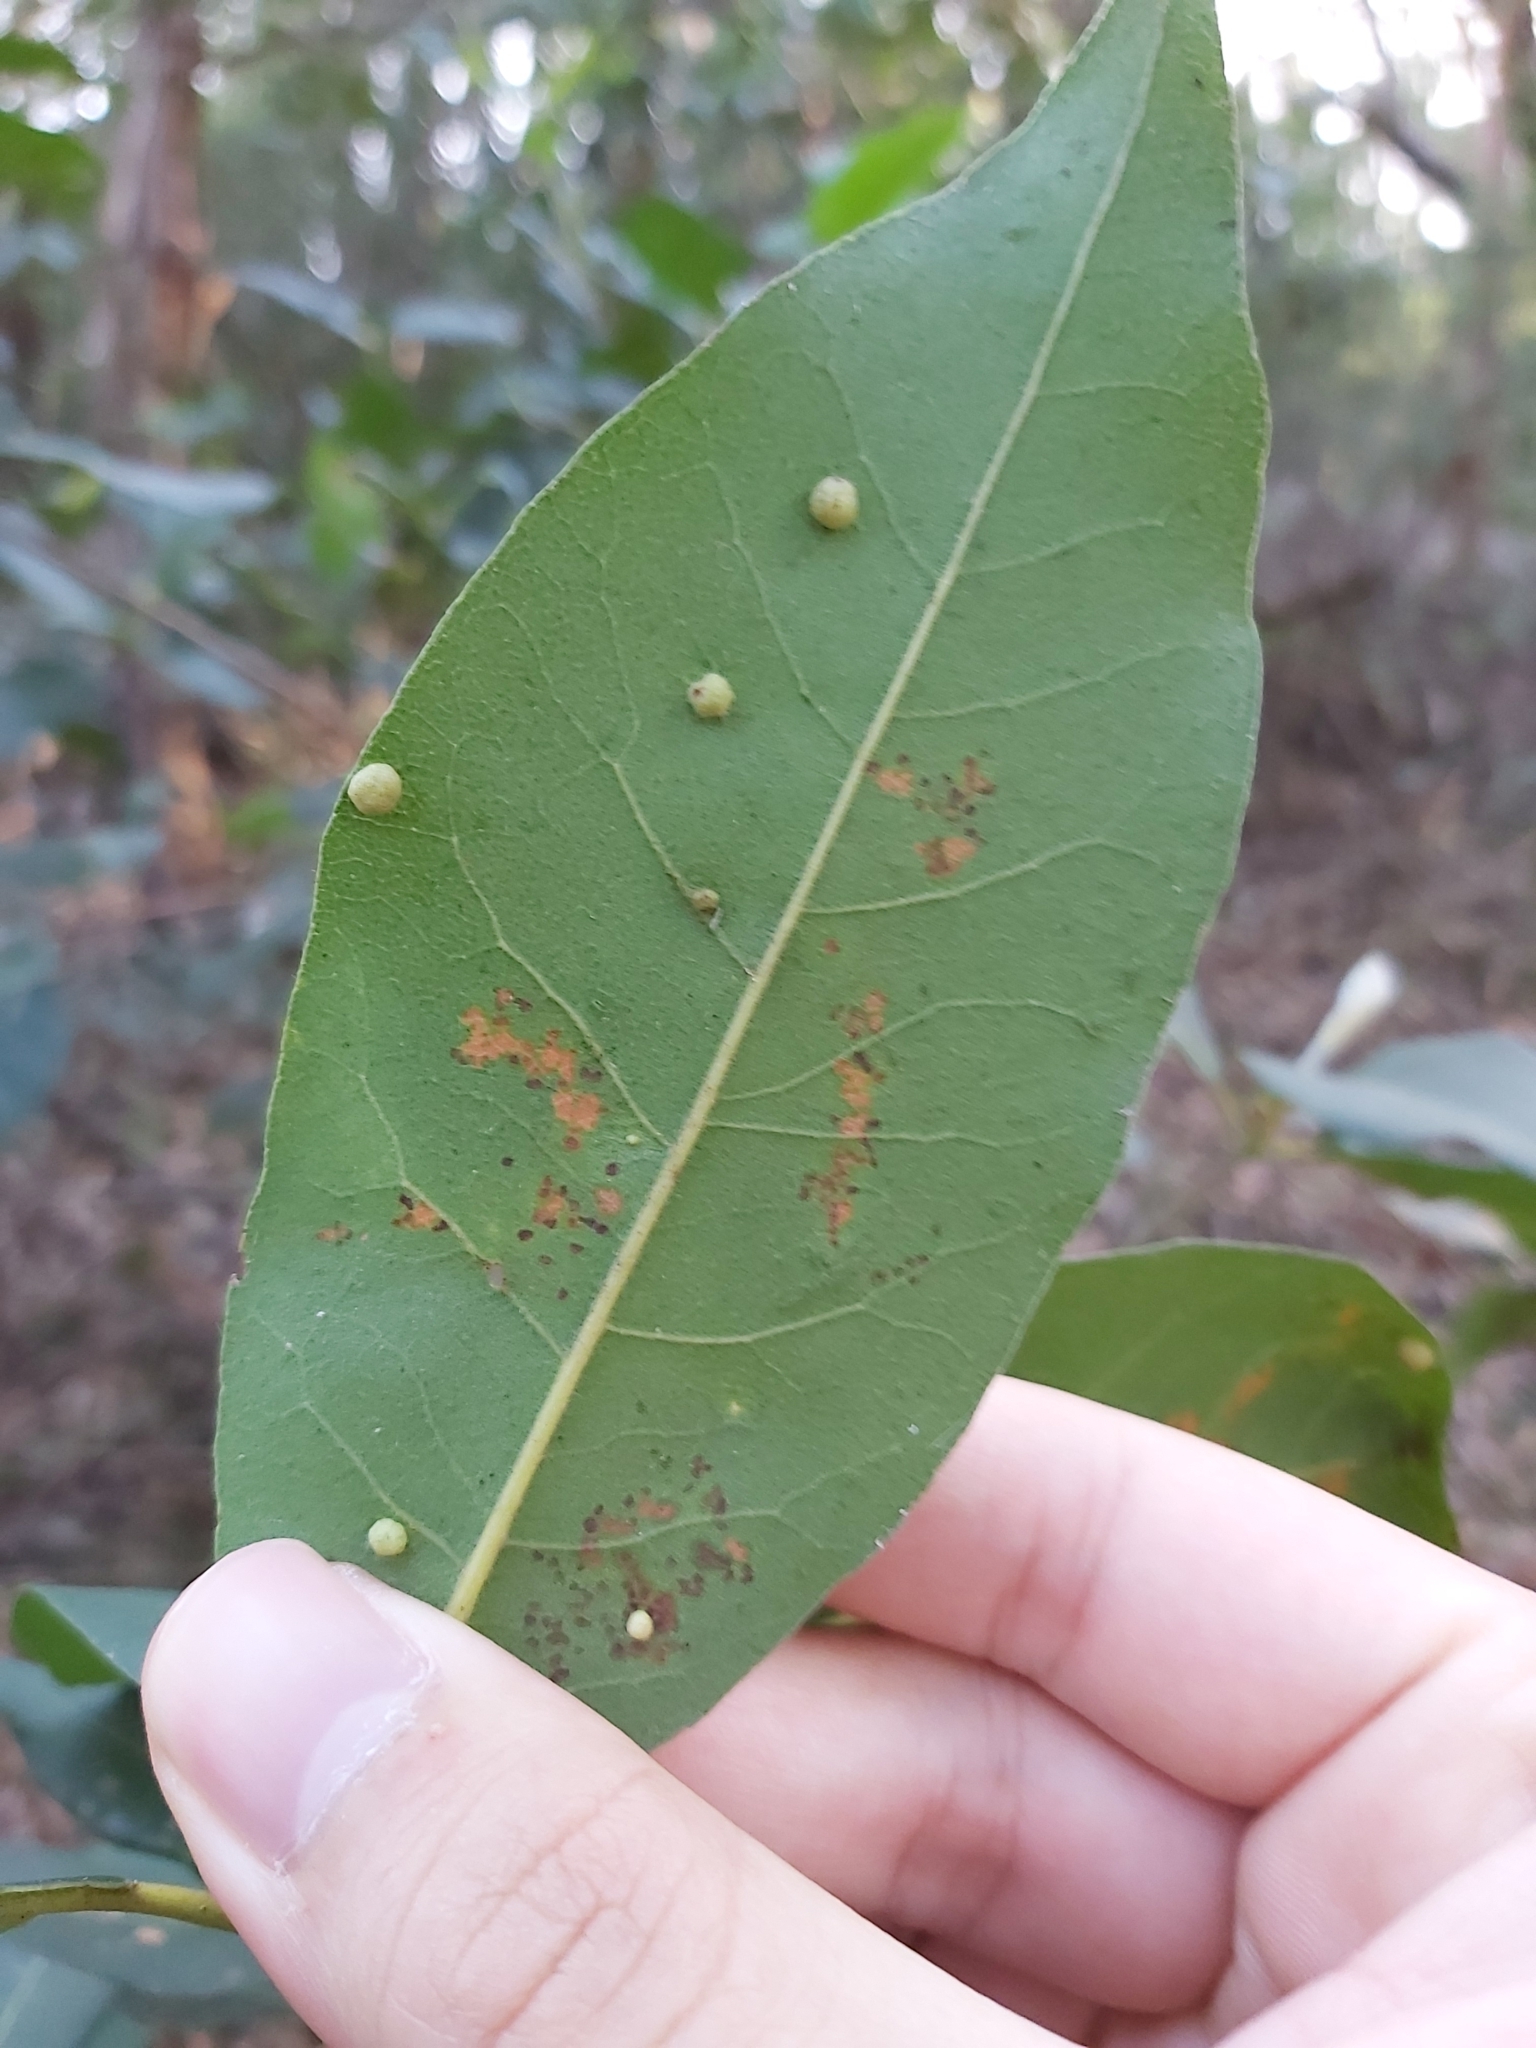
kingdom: Plantae
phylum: Tracheophyta
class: Magnoliopsida
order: Myrtales
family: Myrtaceae
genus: Syncarpia
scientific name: Syncarpia glomulifera
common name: Turpentine tree
